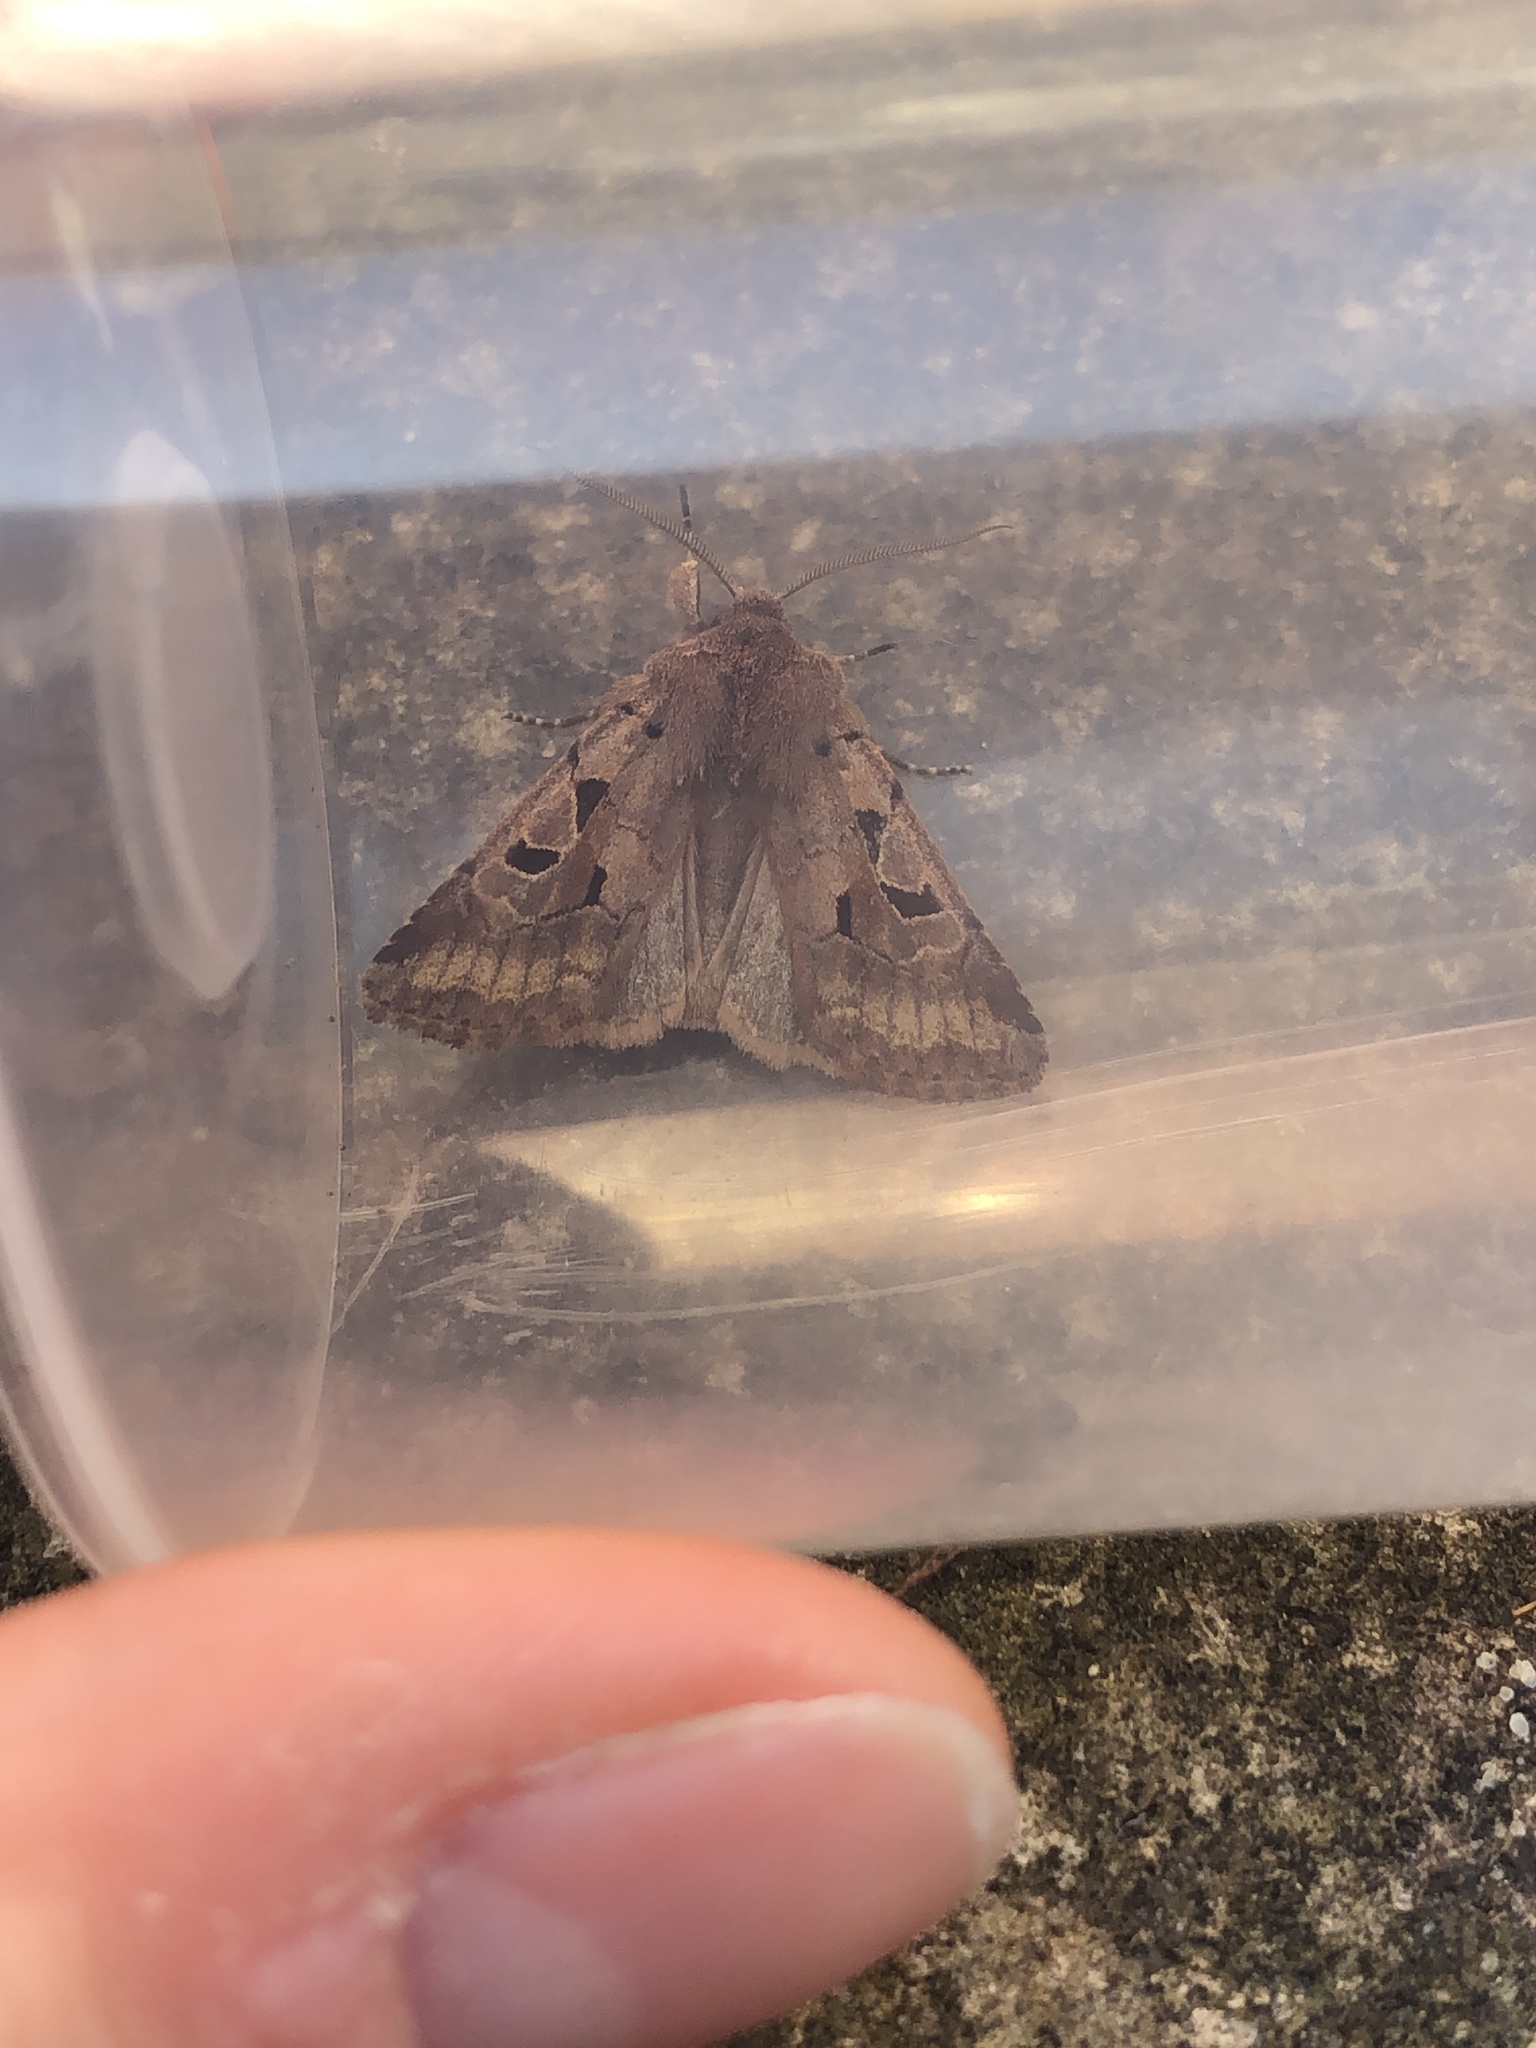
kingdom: Animalia
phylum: Arthropoda
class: Insecta
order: Lepidoptera
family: Noctuidae
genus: Orthosia
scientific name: Orthosia gothica
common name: Hebrew character
